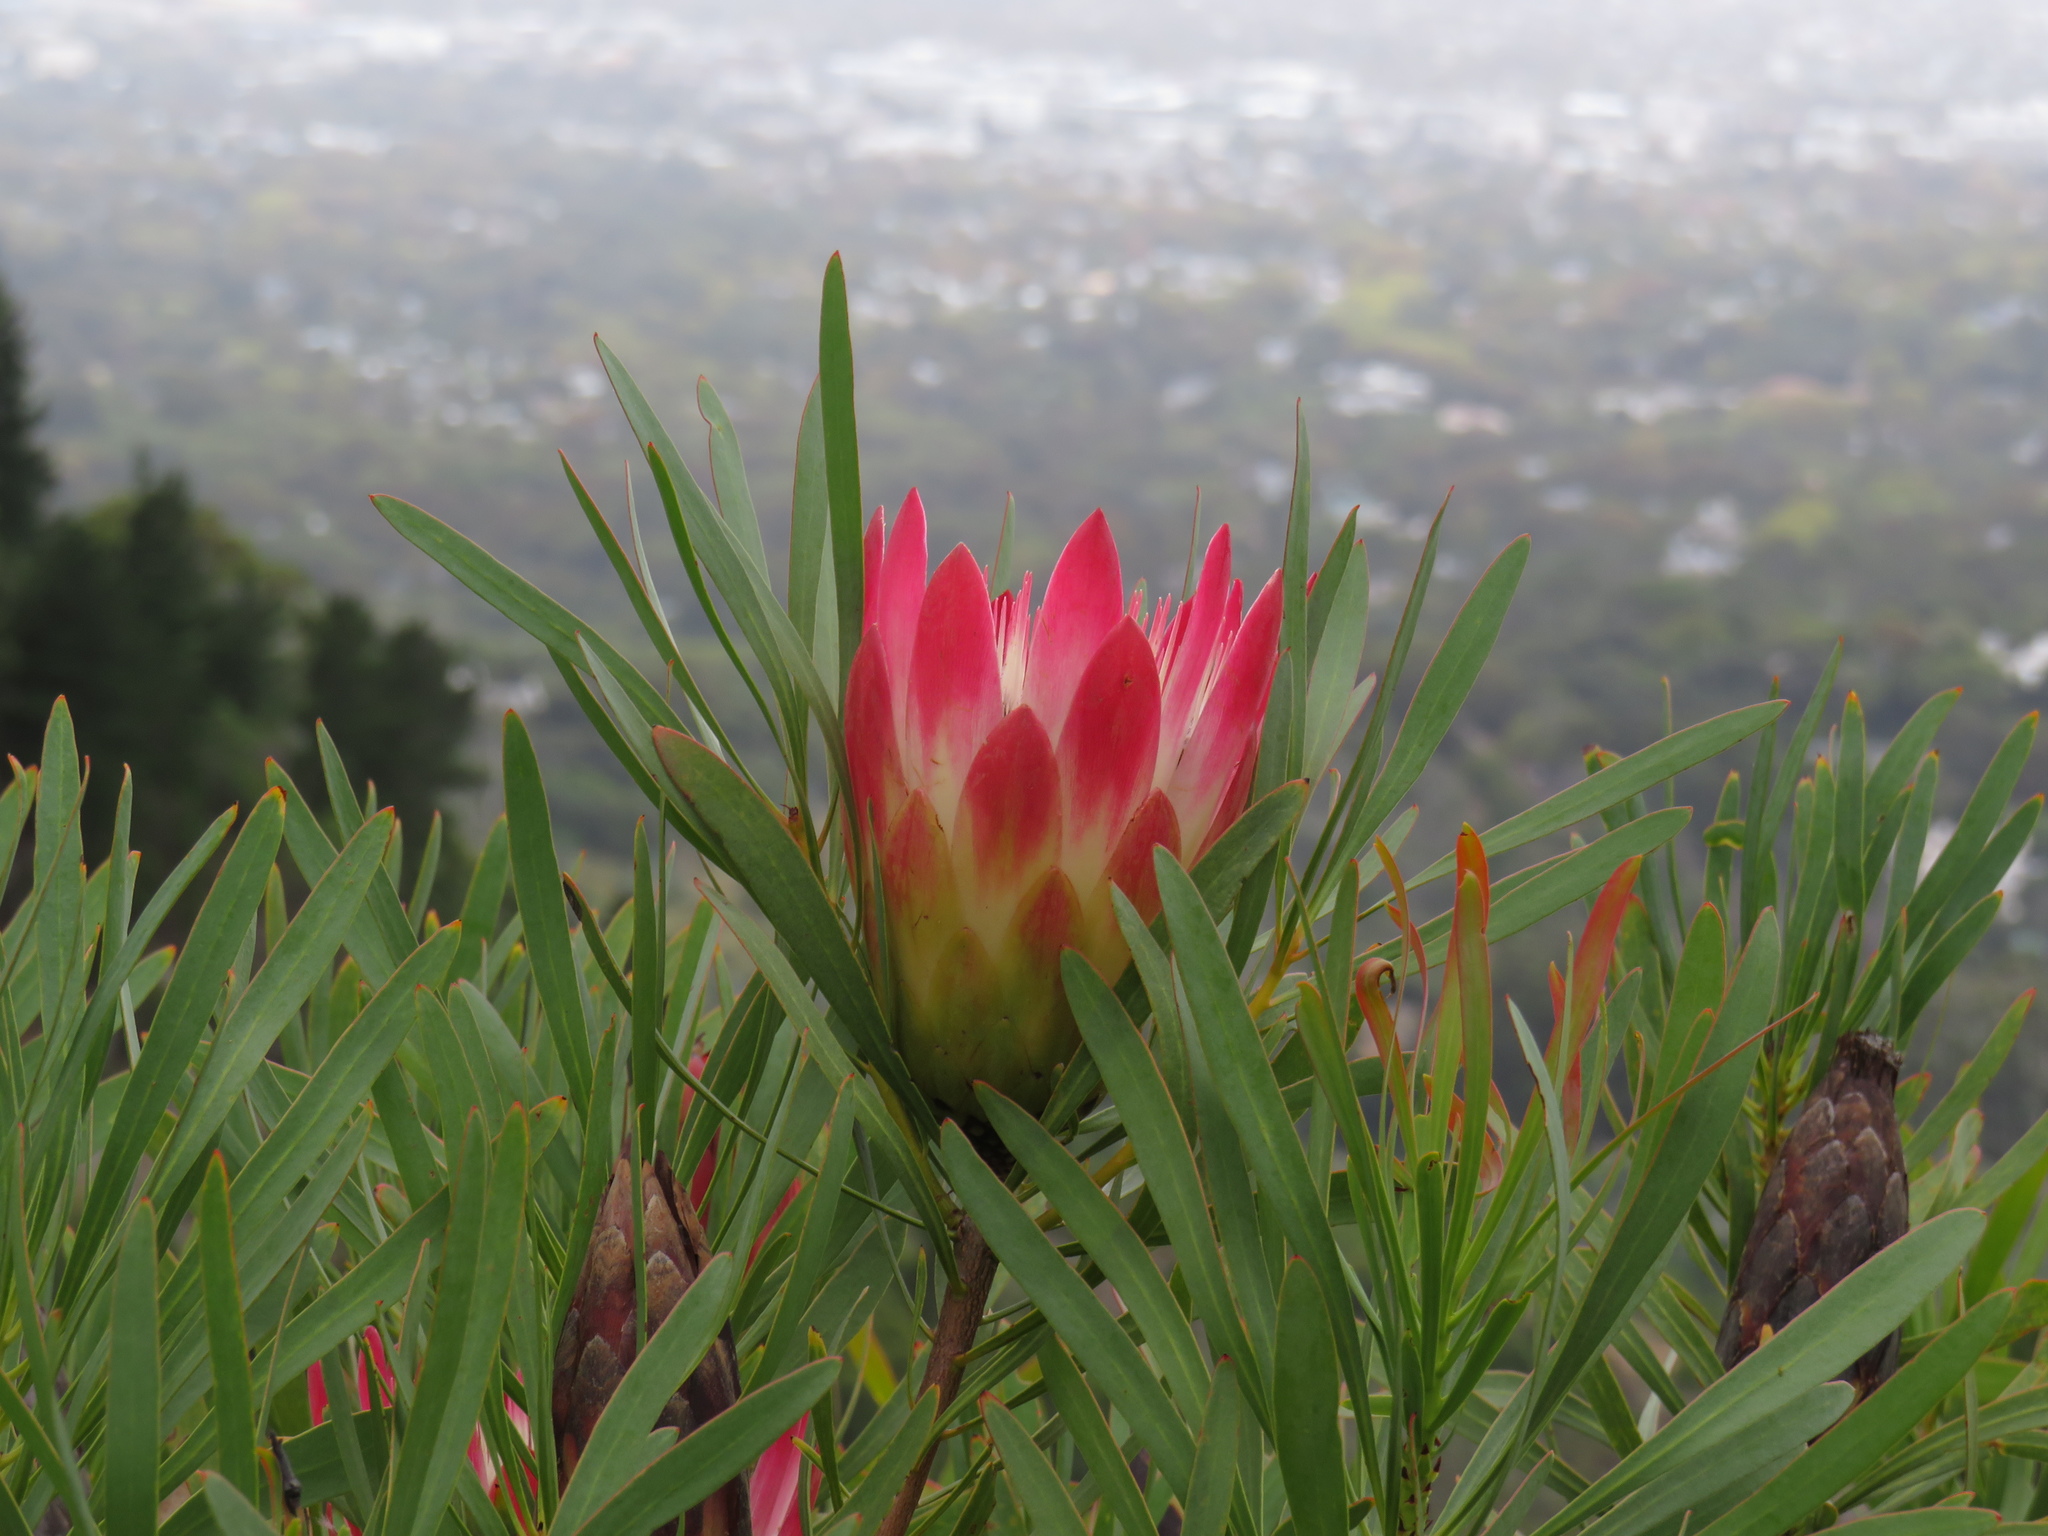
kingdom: Plantae
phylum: Tracheophyta
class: Magnoliopsida
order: Proteales
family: Proteaceae
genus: Protea
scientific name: Protea repens
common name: Sugarbush
